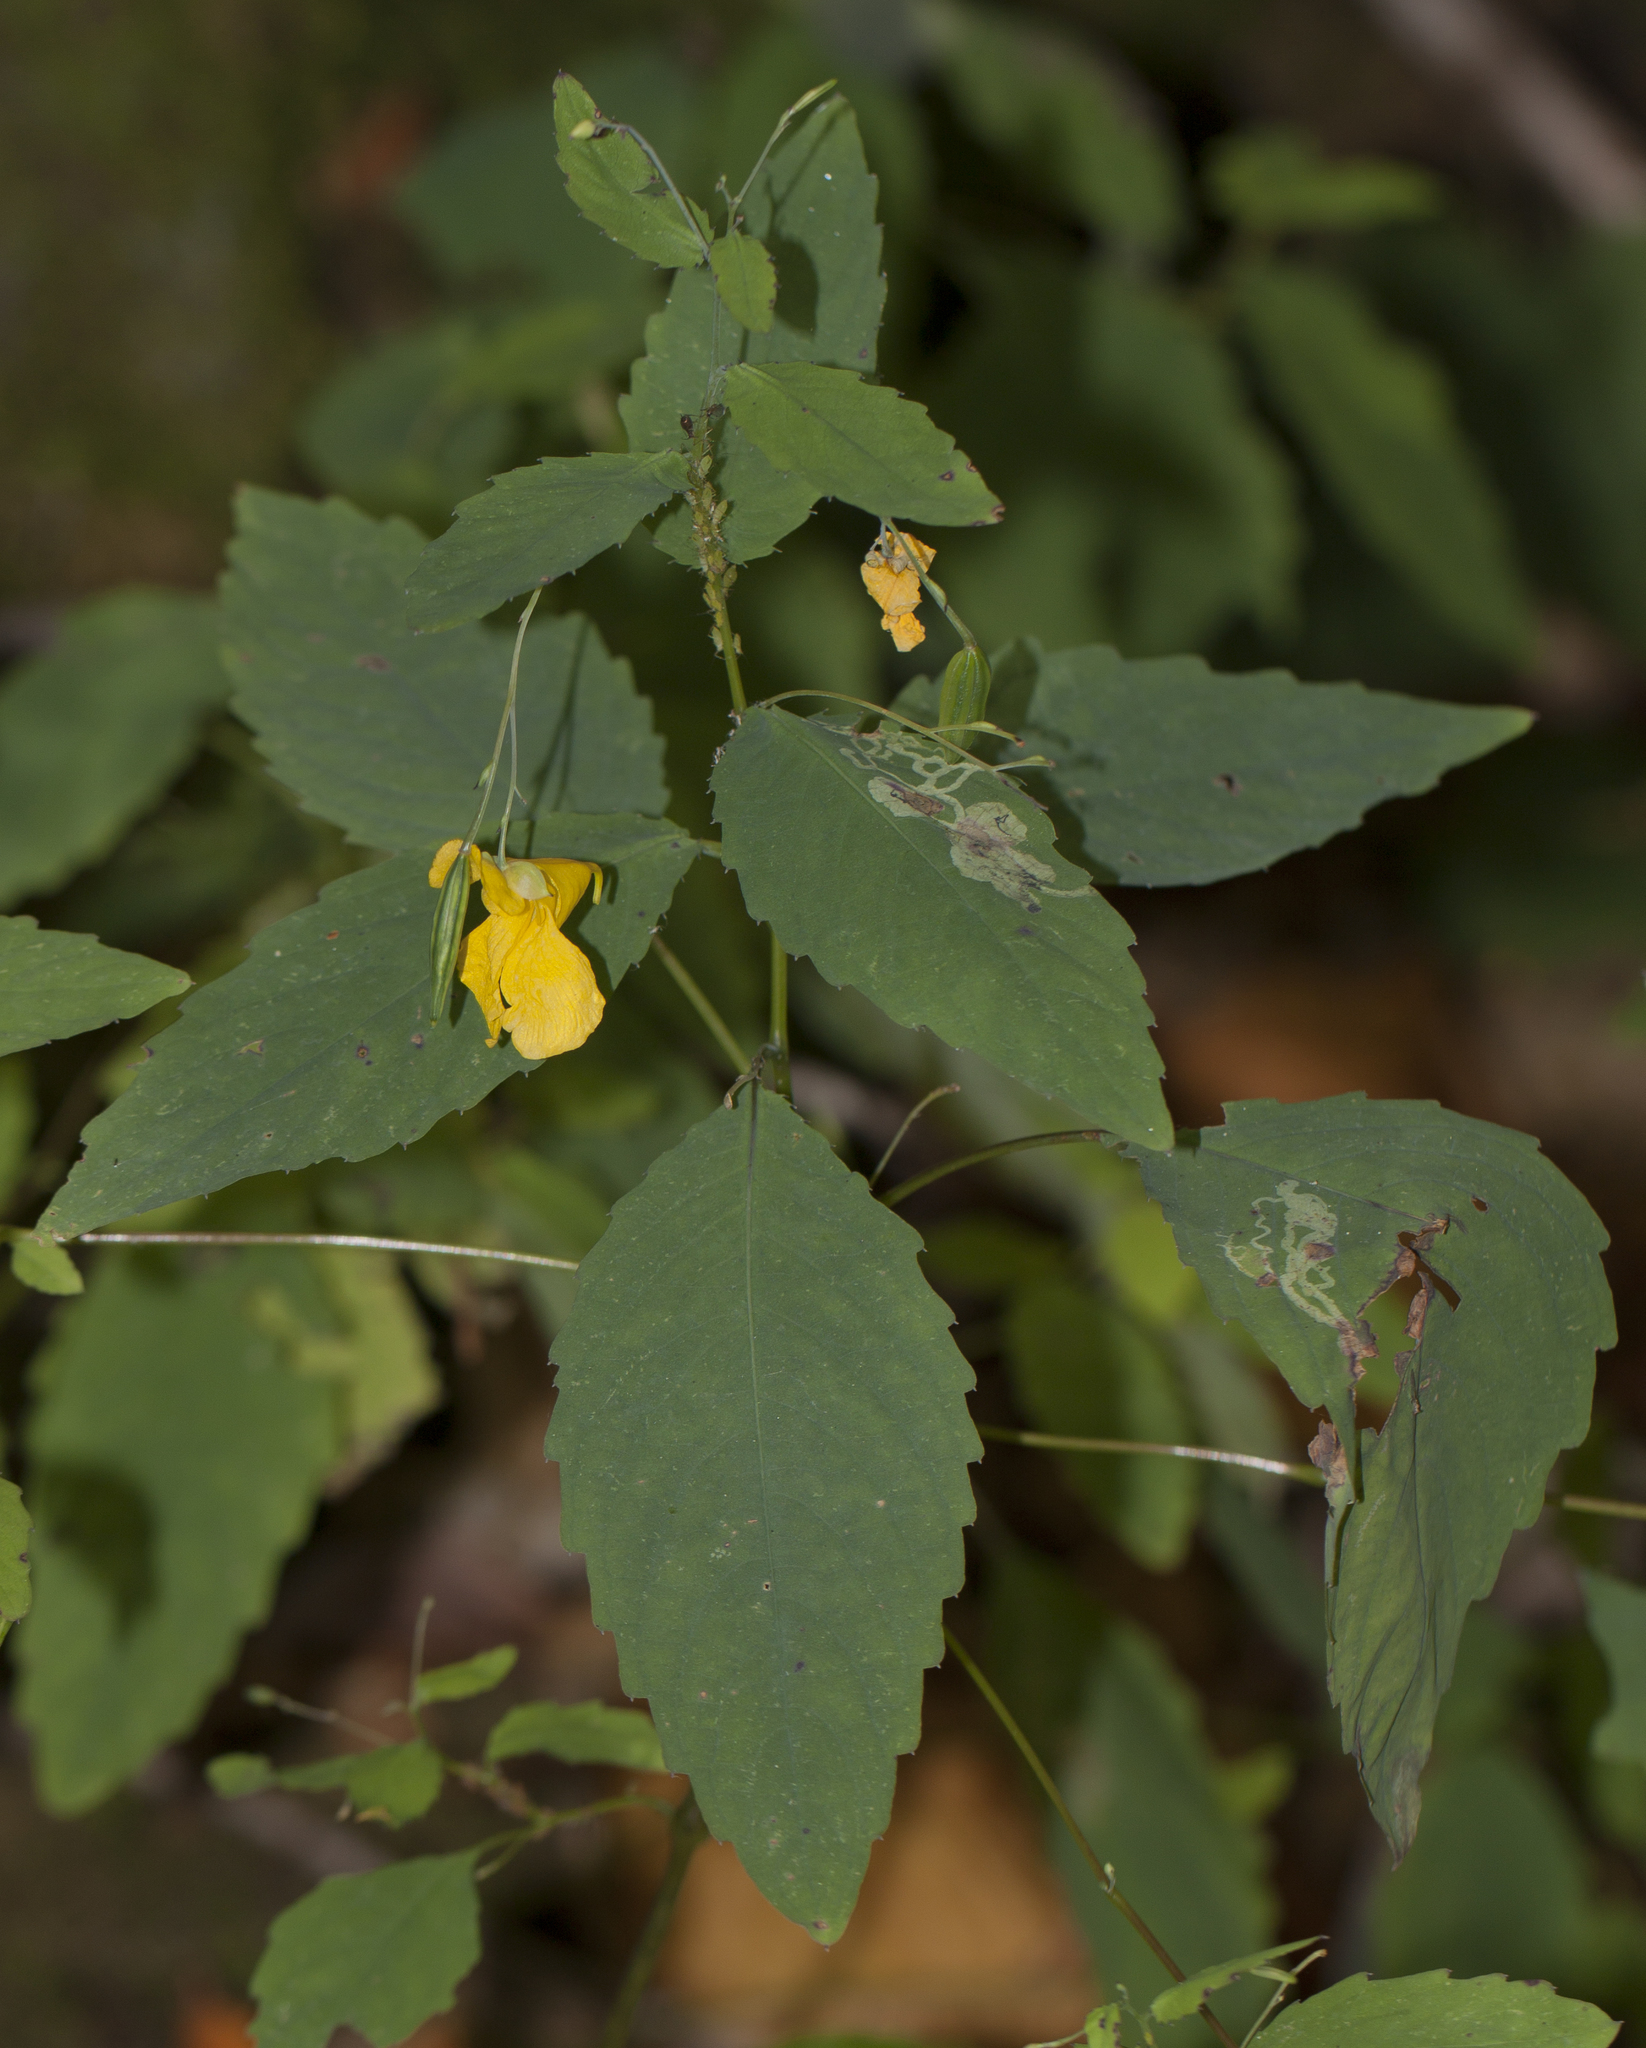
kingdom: Plantae
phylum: Tracheophyta
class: Magnoliopsida
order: Ericales
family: Balsaminaceae
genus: Impatiens
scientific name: Impatiens pallida
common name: Pale snapweed
